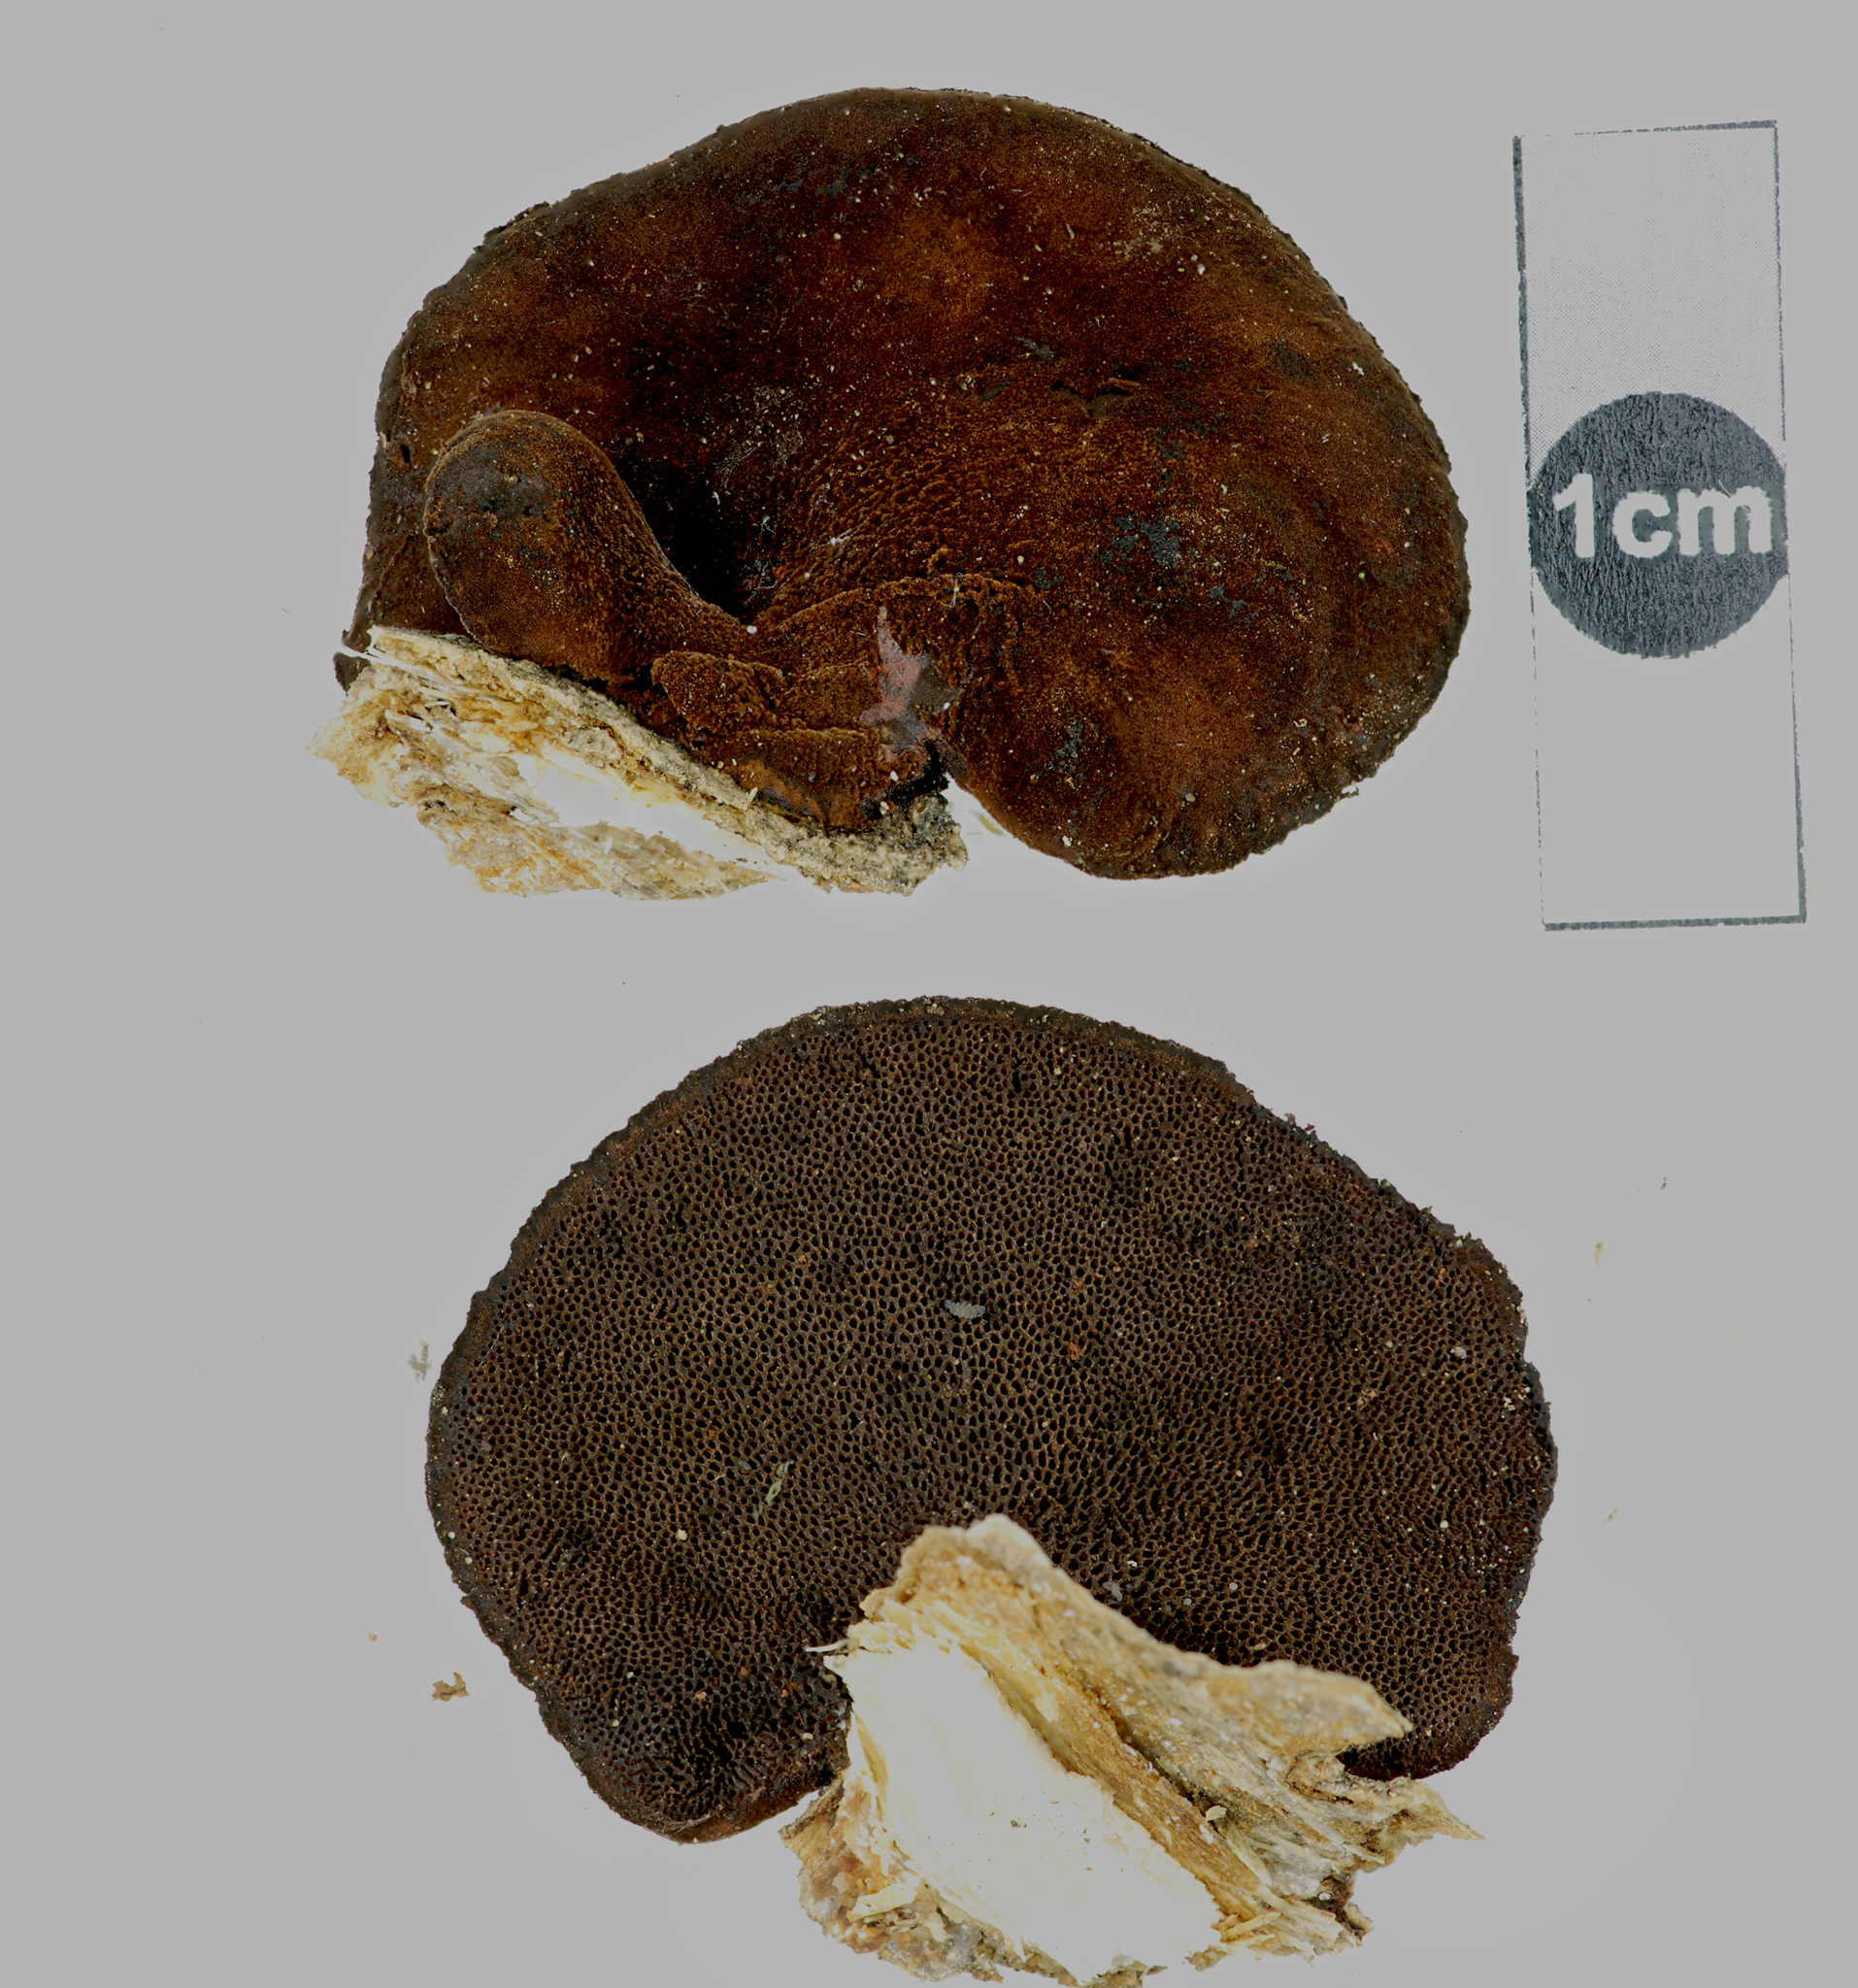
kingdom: Fungi
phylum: Basidiomycota
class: Agaricomycetes
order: Polyporales
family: Polyporaceae
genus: Echinochaete
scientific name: Echinochaete russiceps
